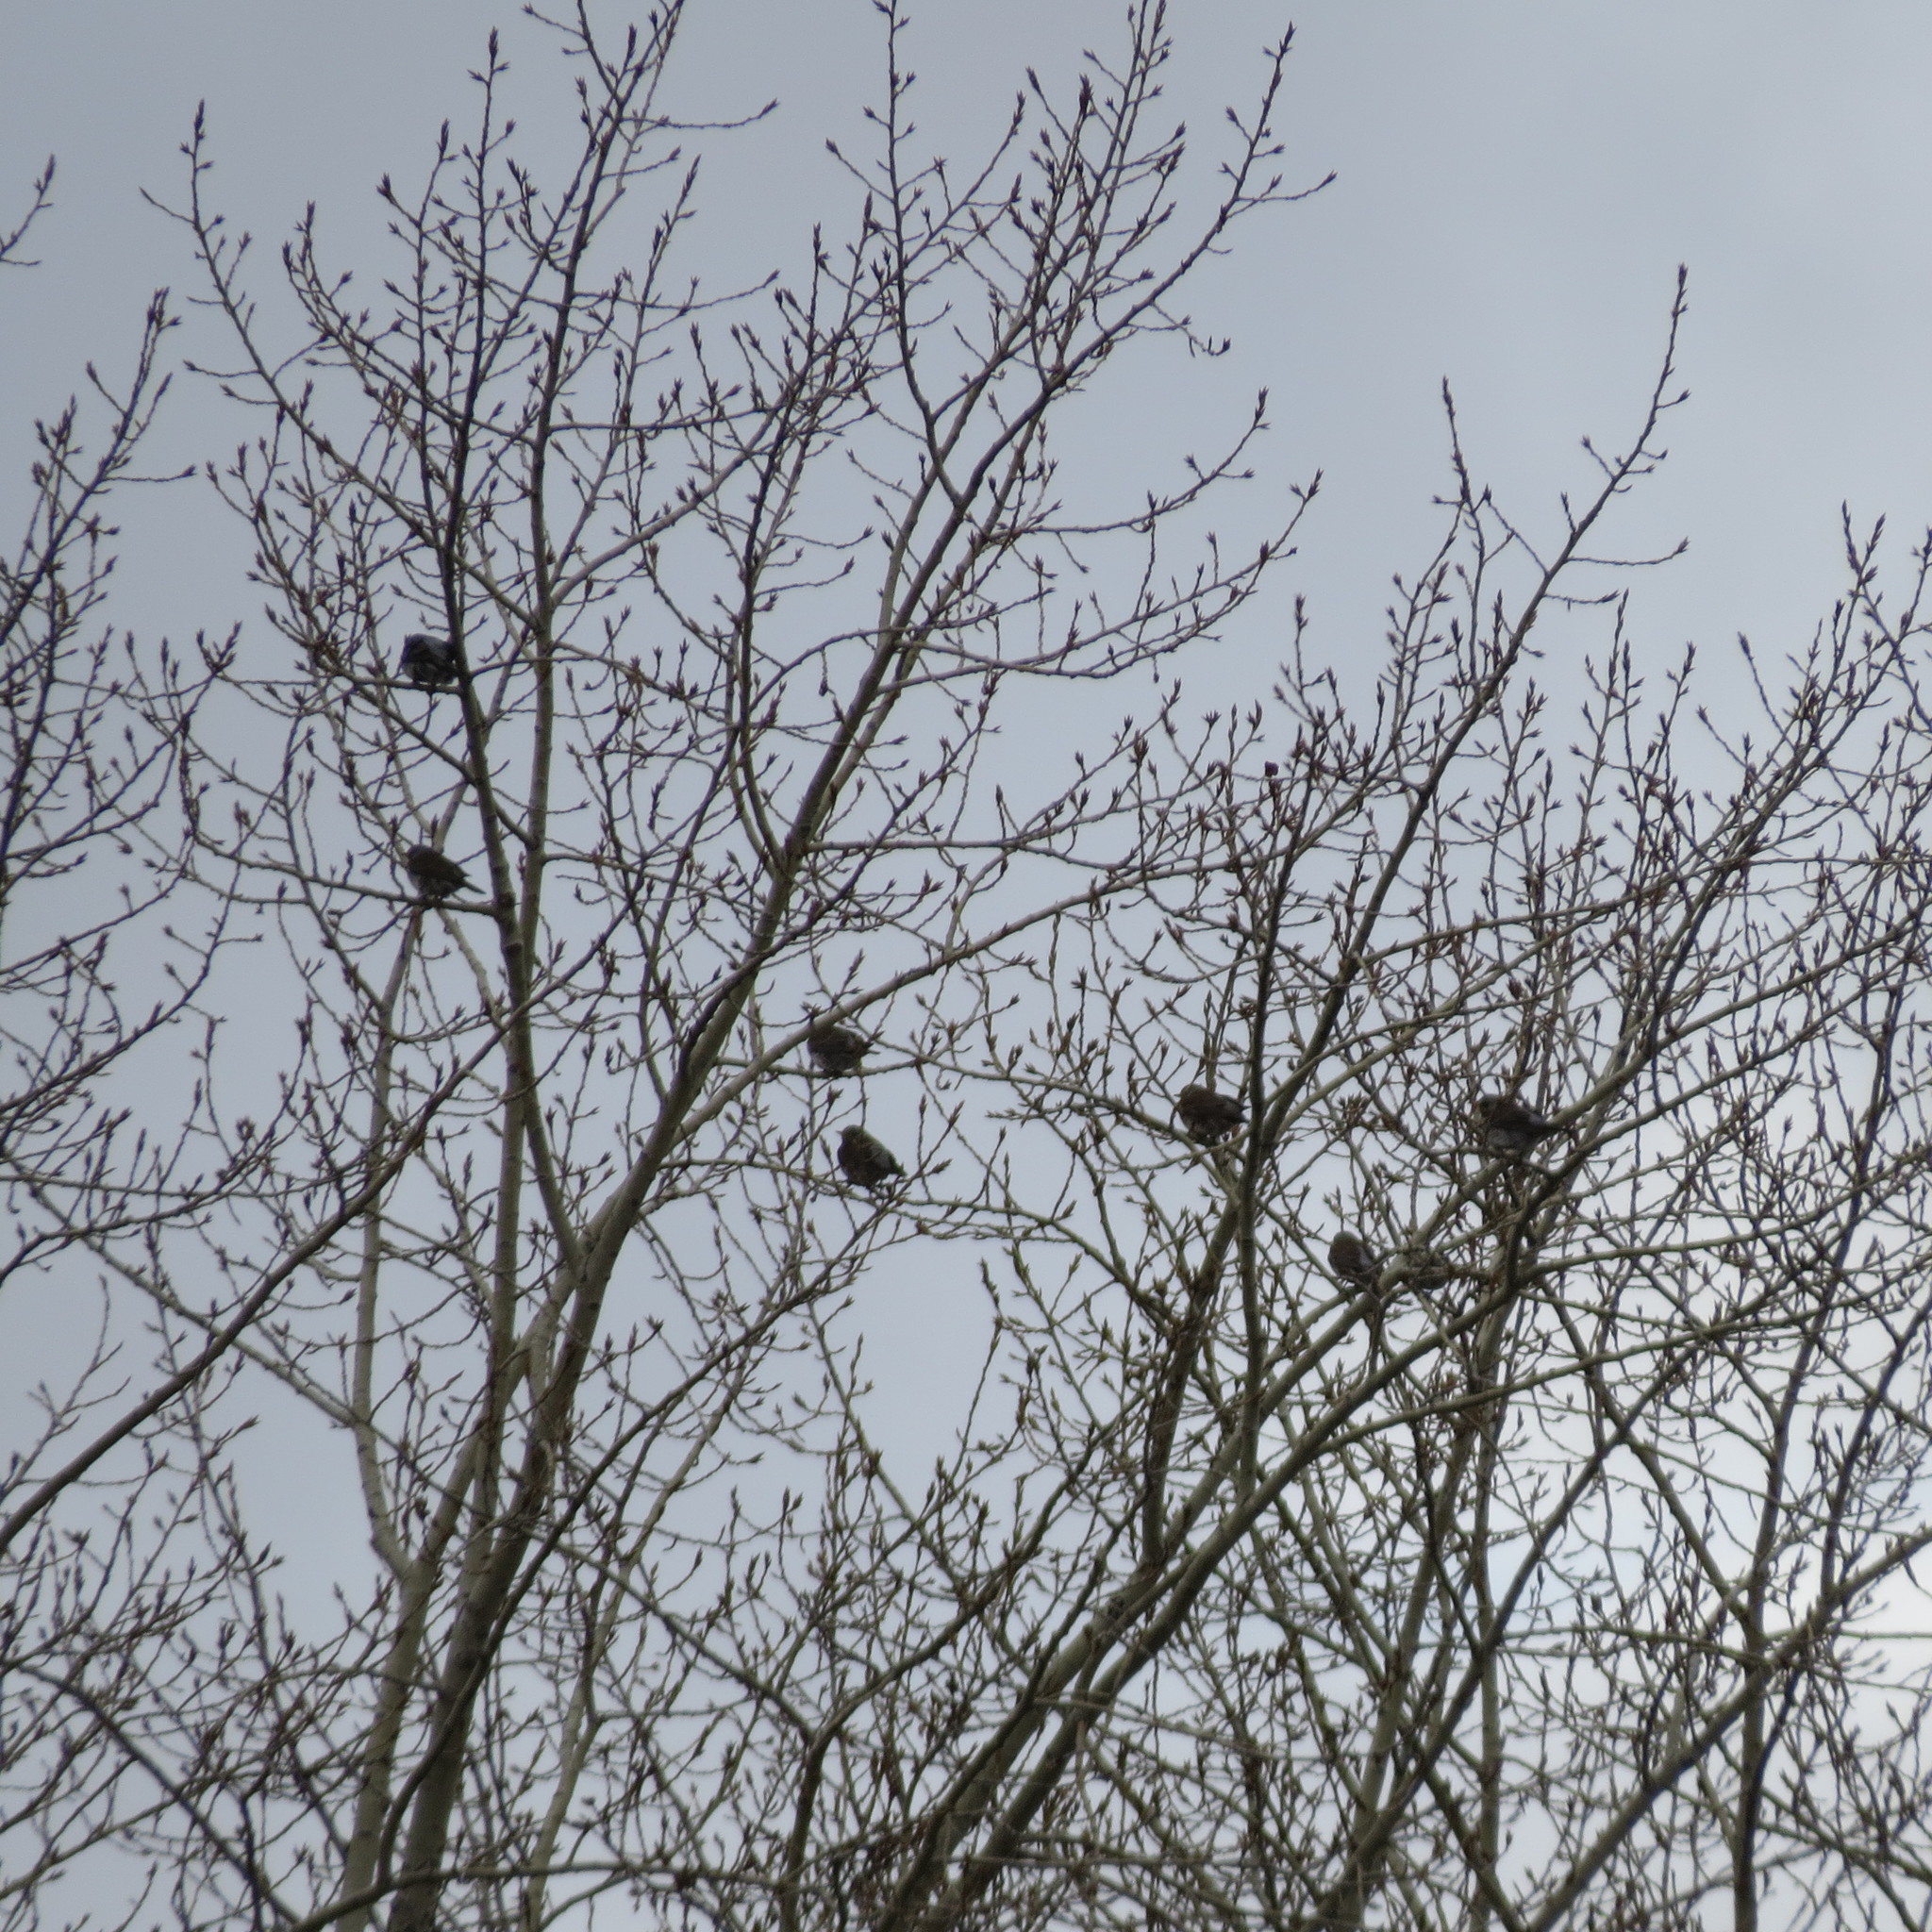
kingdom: Animalia
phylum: Chordata
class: Aves
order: Passeriformes
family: Turdidae
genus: Turdus
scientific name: Turdus pilaris
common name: Fieldfare
